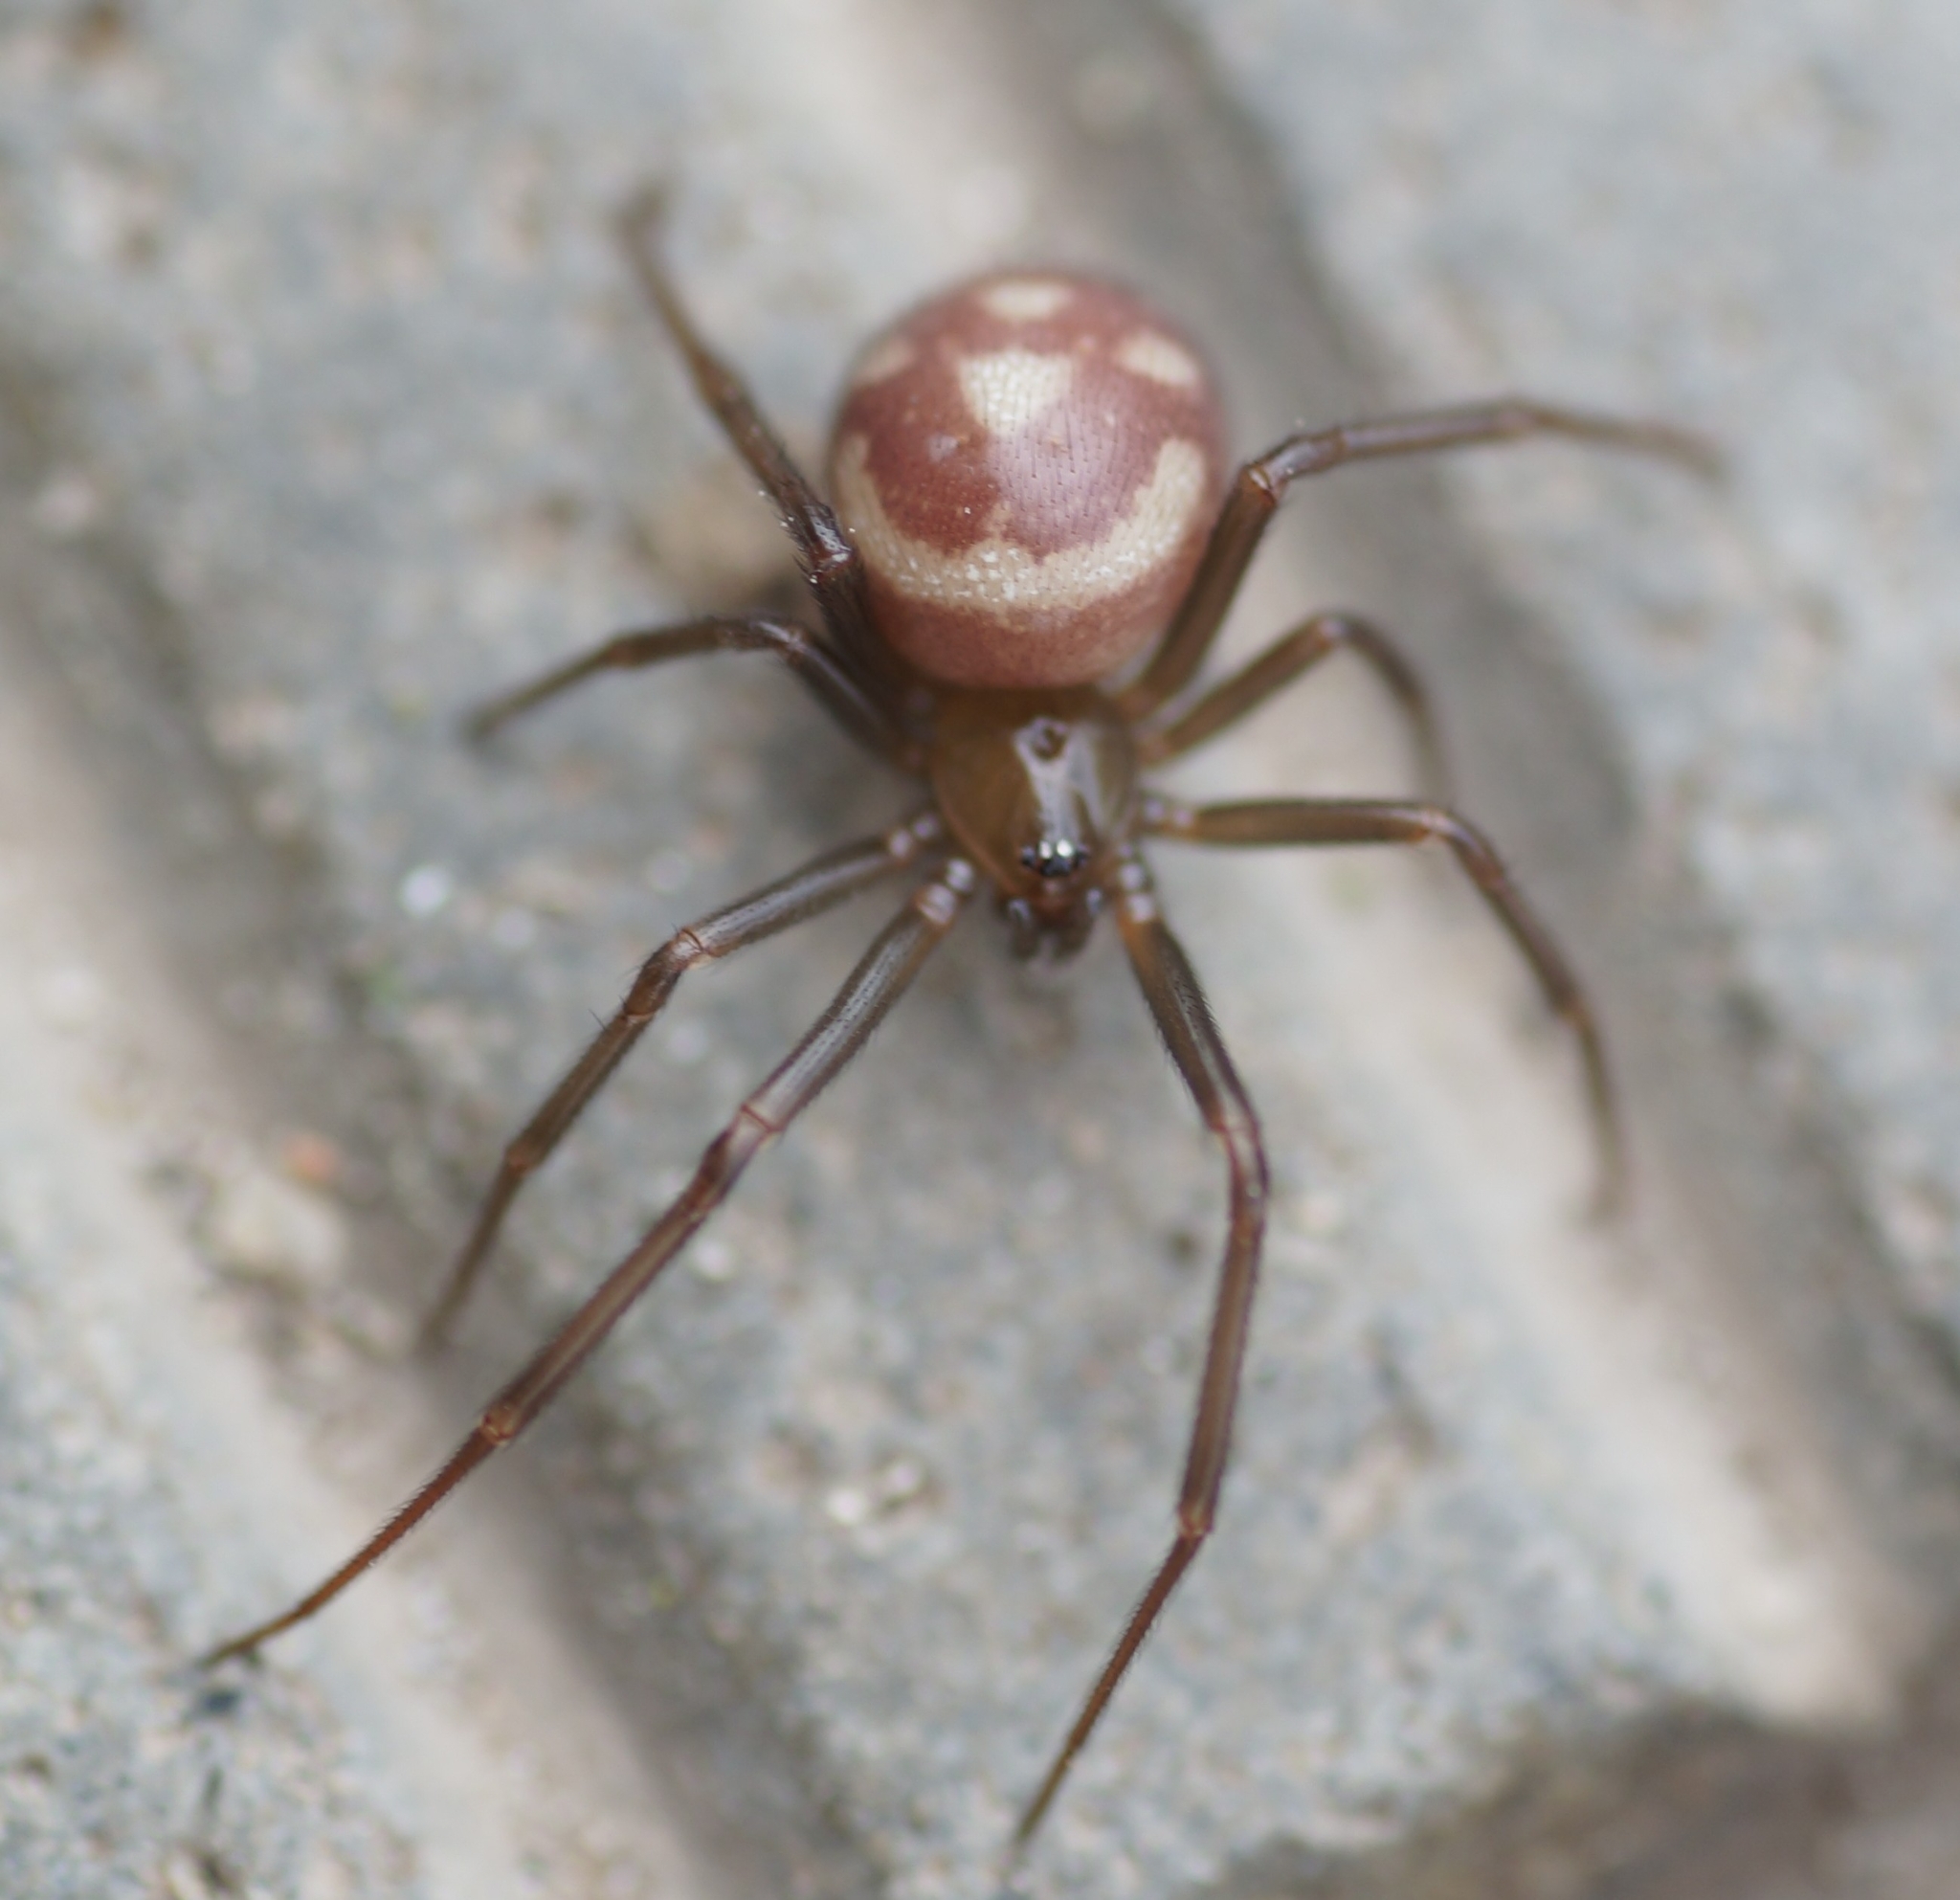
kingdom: Animalia
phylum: Arthropoda
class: Arachnida
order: Araneae
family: Theridiidae
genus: Steatoda
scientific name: Steatoda grossa
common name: False black widow
